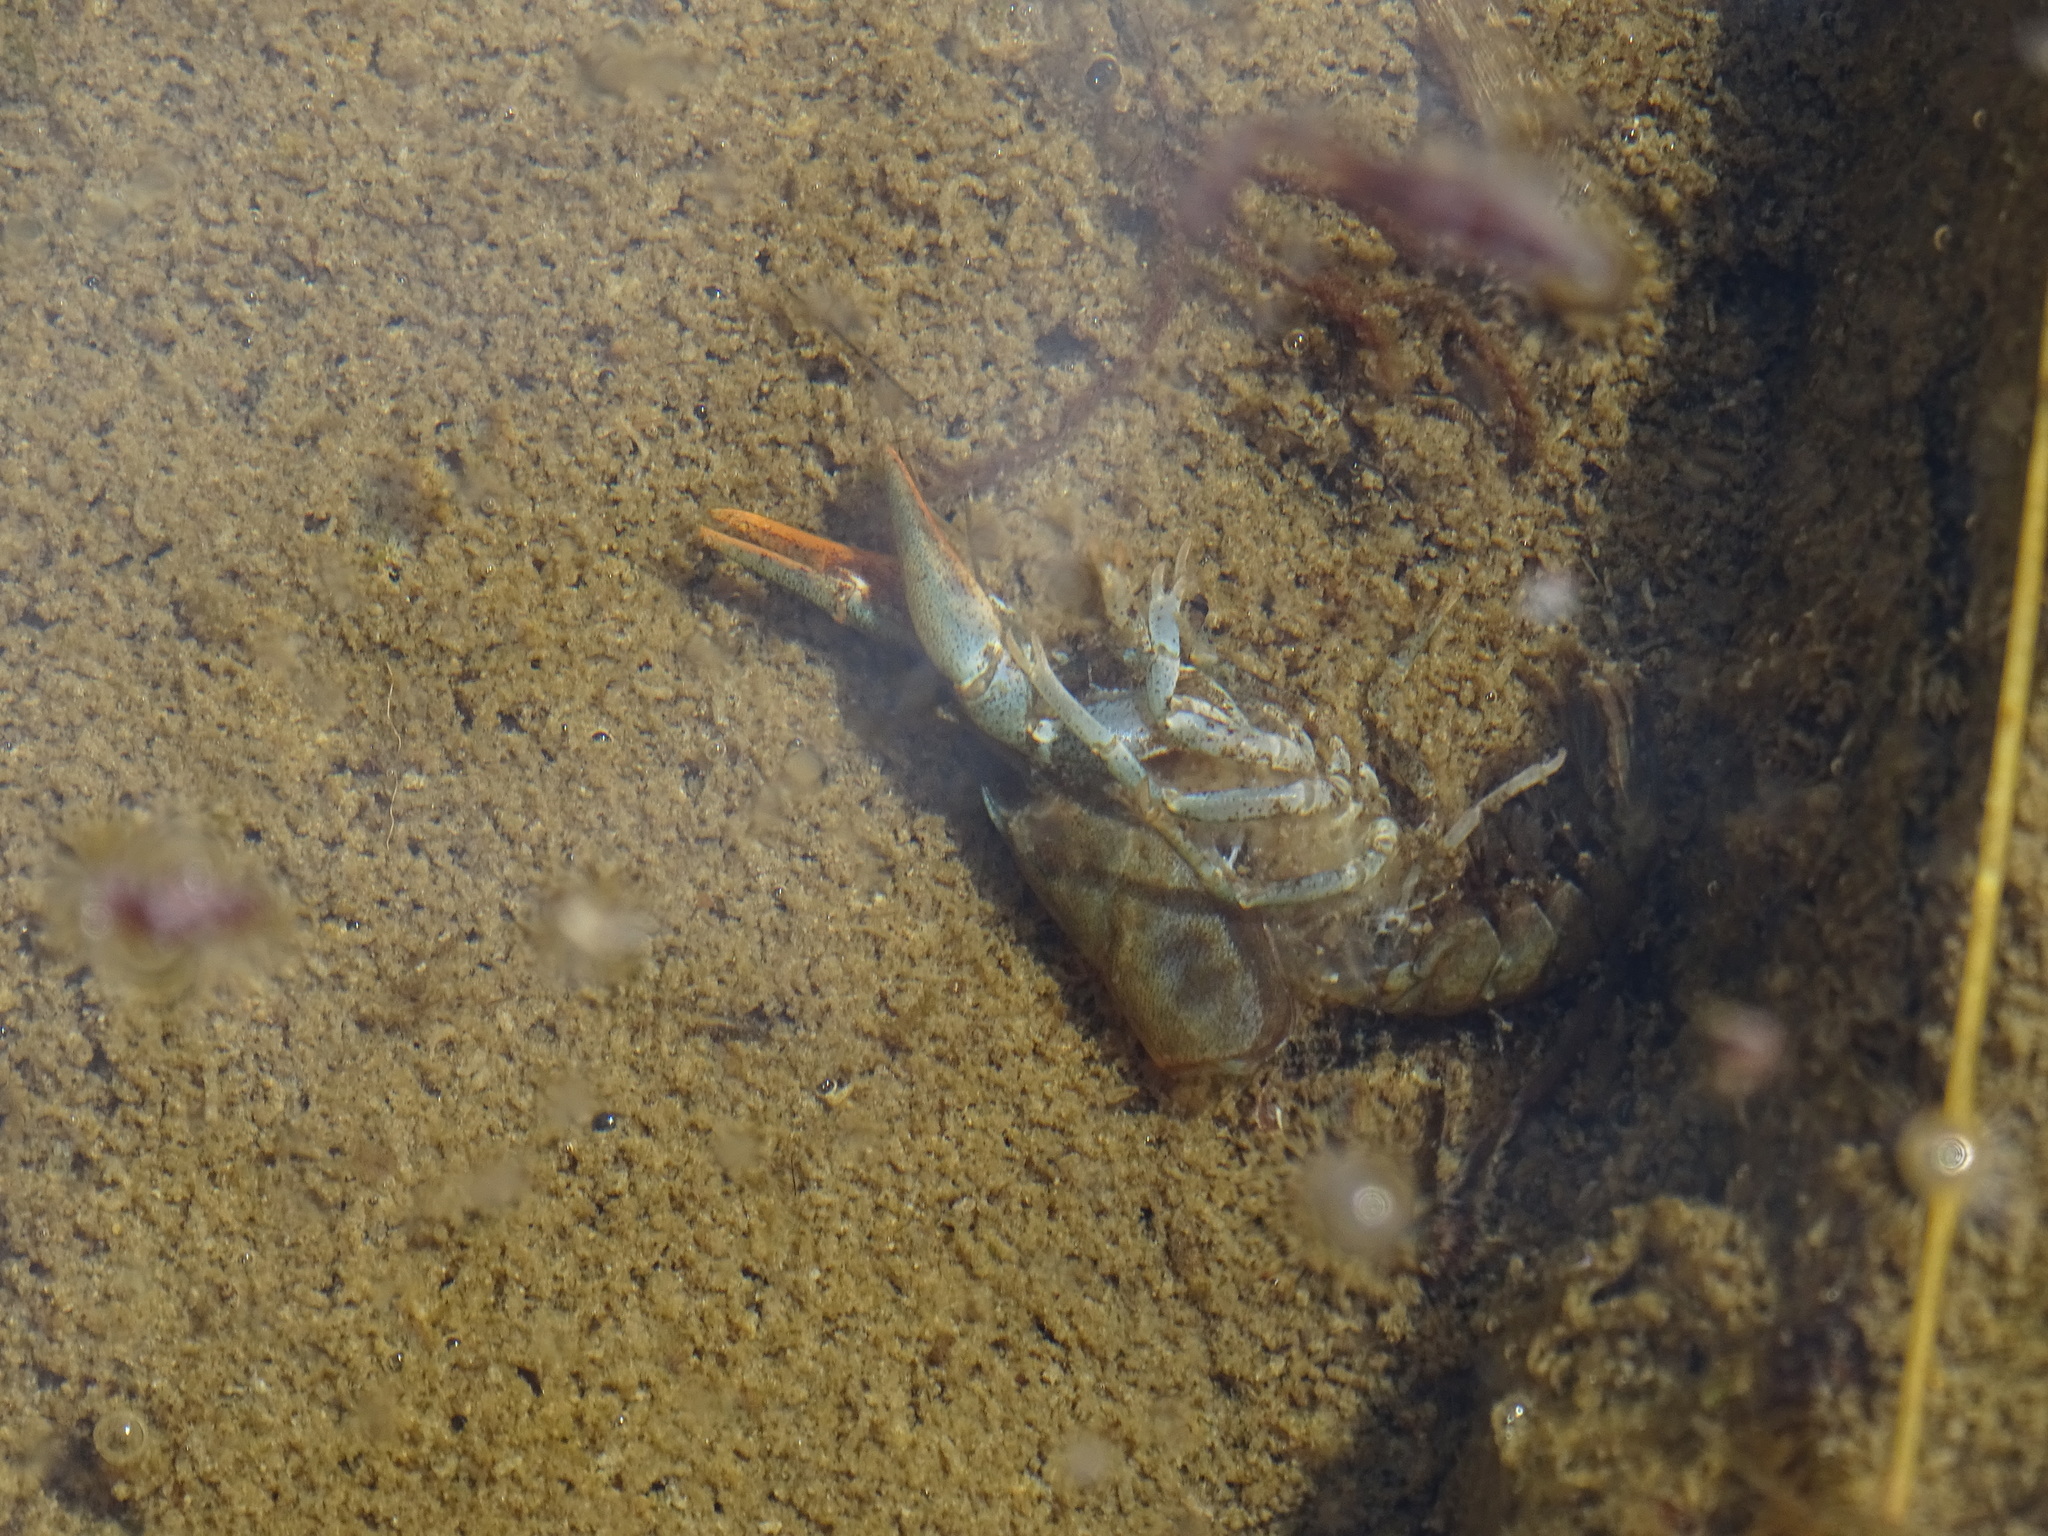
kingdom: Animalia
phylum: Arthropoda
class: Malacostraca
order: Decapoda
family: Astacidae
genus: Austropotamobius
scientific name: Austropotamobius pallipes
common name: White-clawed crayfish
